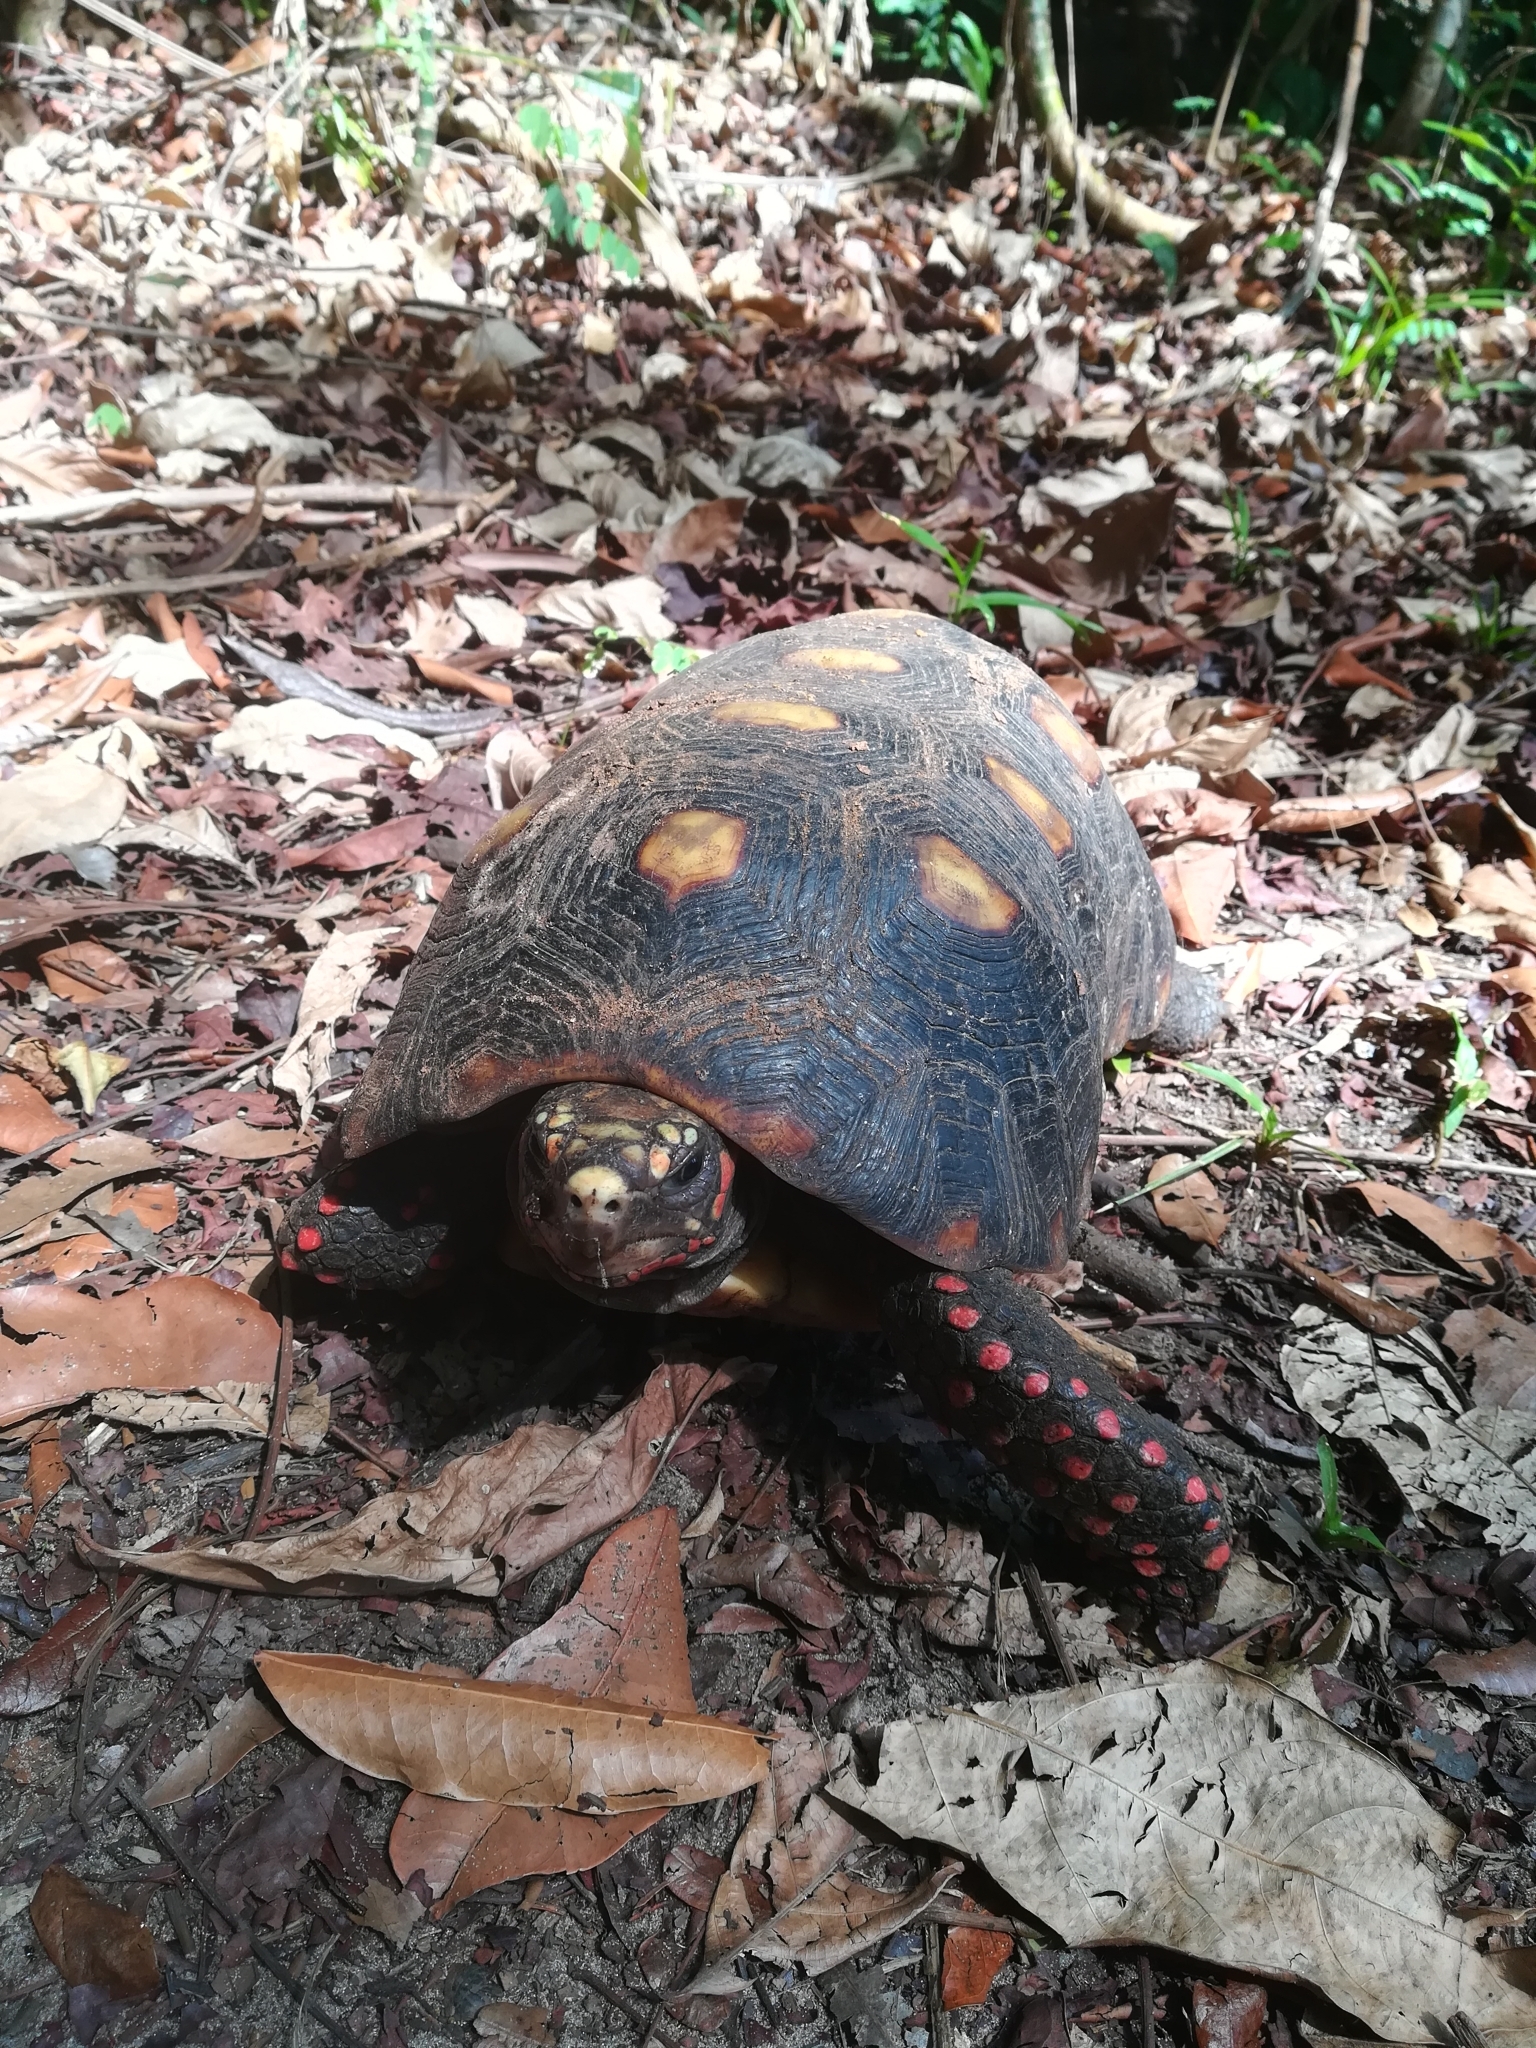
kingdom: Animalia
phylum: Chordata
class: Testudines
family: Testudinidae
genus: Chelonoidis
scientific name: Chelonoidis carbonarius
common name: Red-footed tortoise
